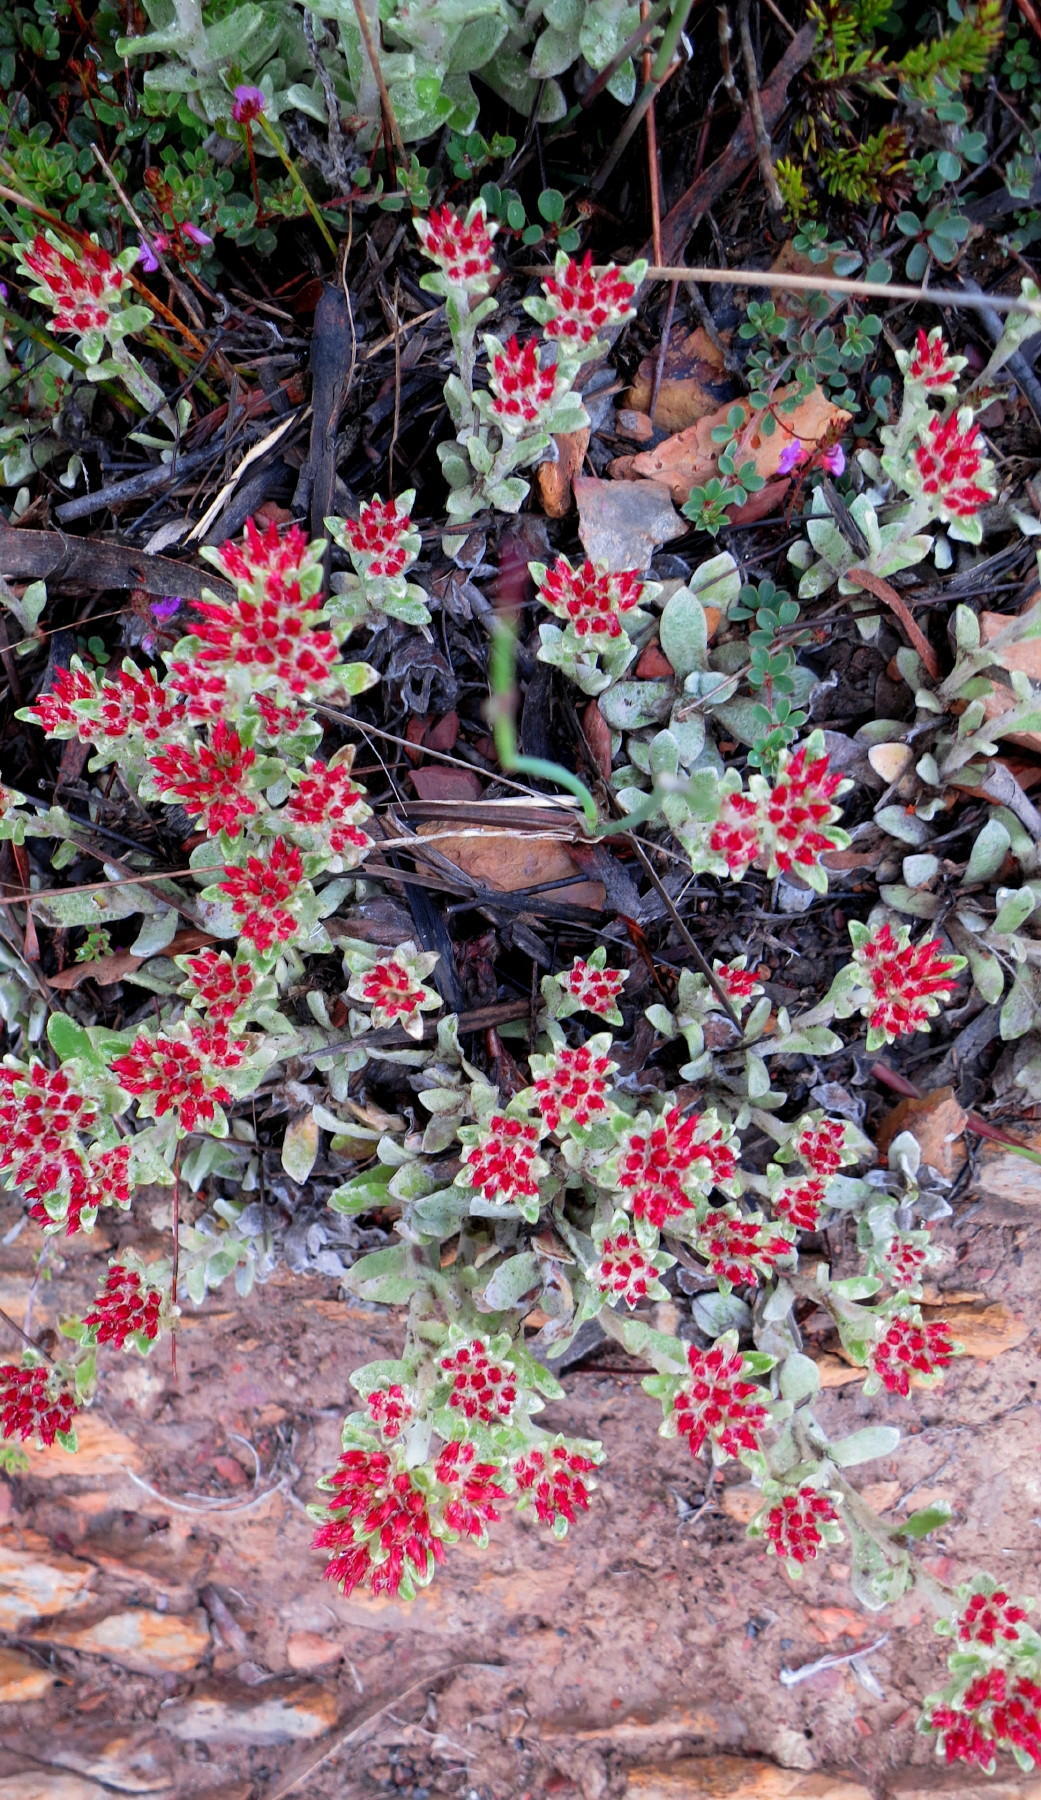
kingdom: Plantae
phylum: Tracheophyta
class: Magnoliopsida
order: Asterales
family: Asteraceae
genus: Helichrysum
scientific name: Helichrysum spiralepis
